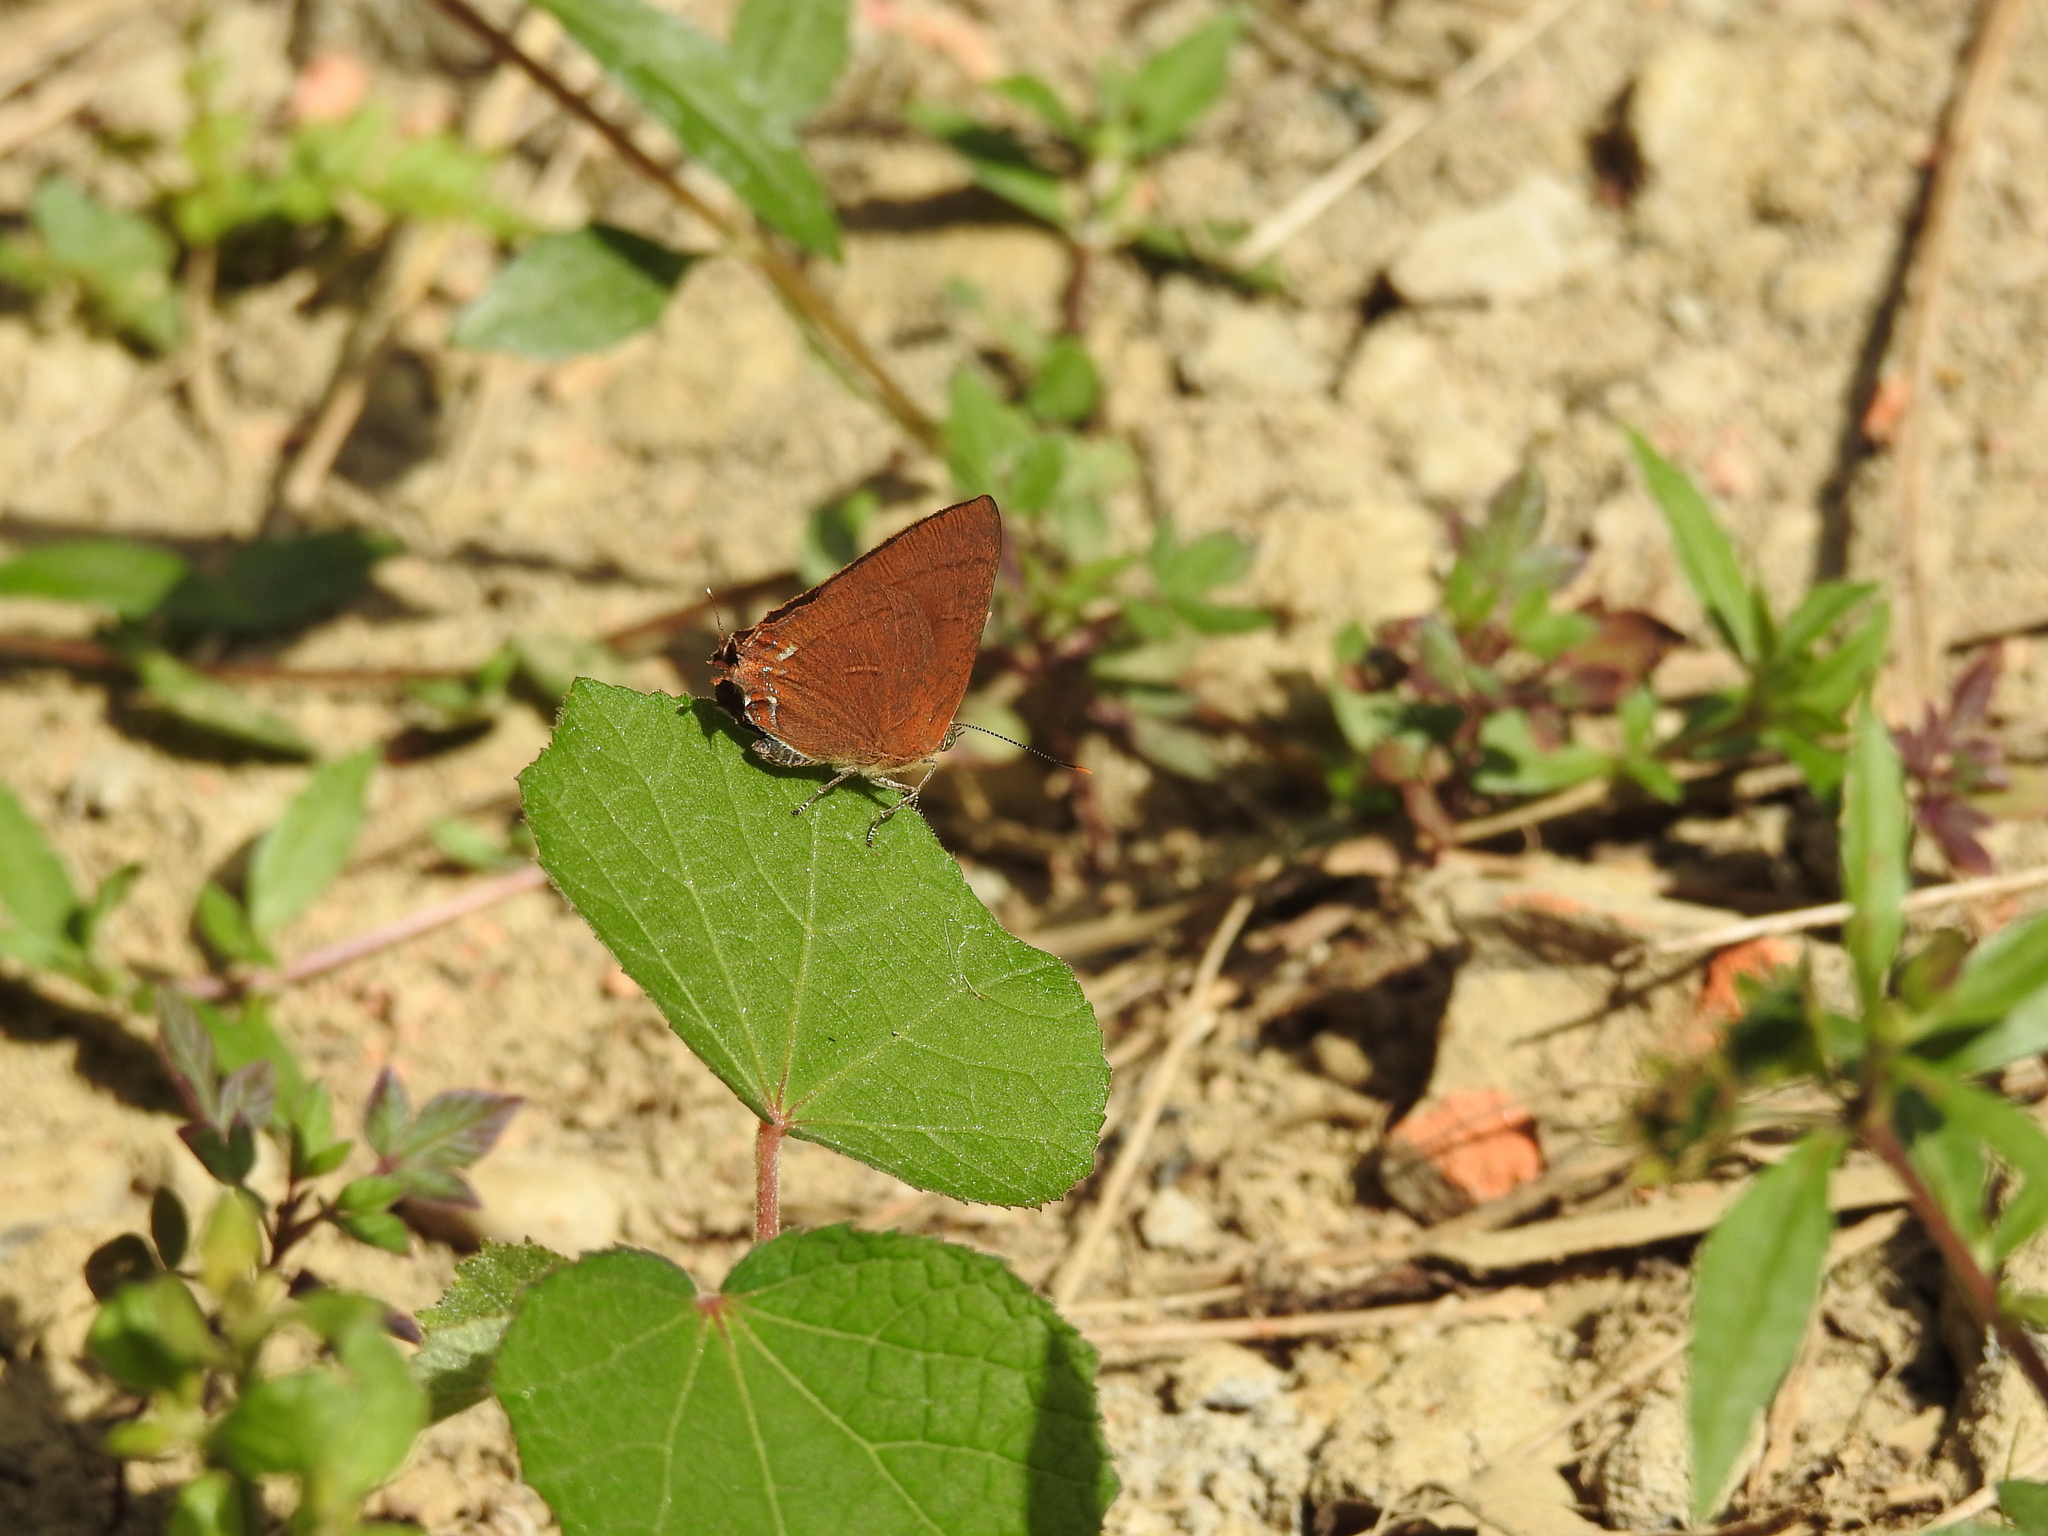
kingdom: Animalia
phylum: Arthropoda
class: Insecta
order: Lepidoptera
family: Lycaenidae
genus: Remelana
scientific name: Remelana jangala
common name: Chocolate royal
